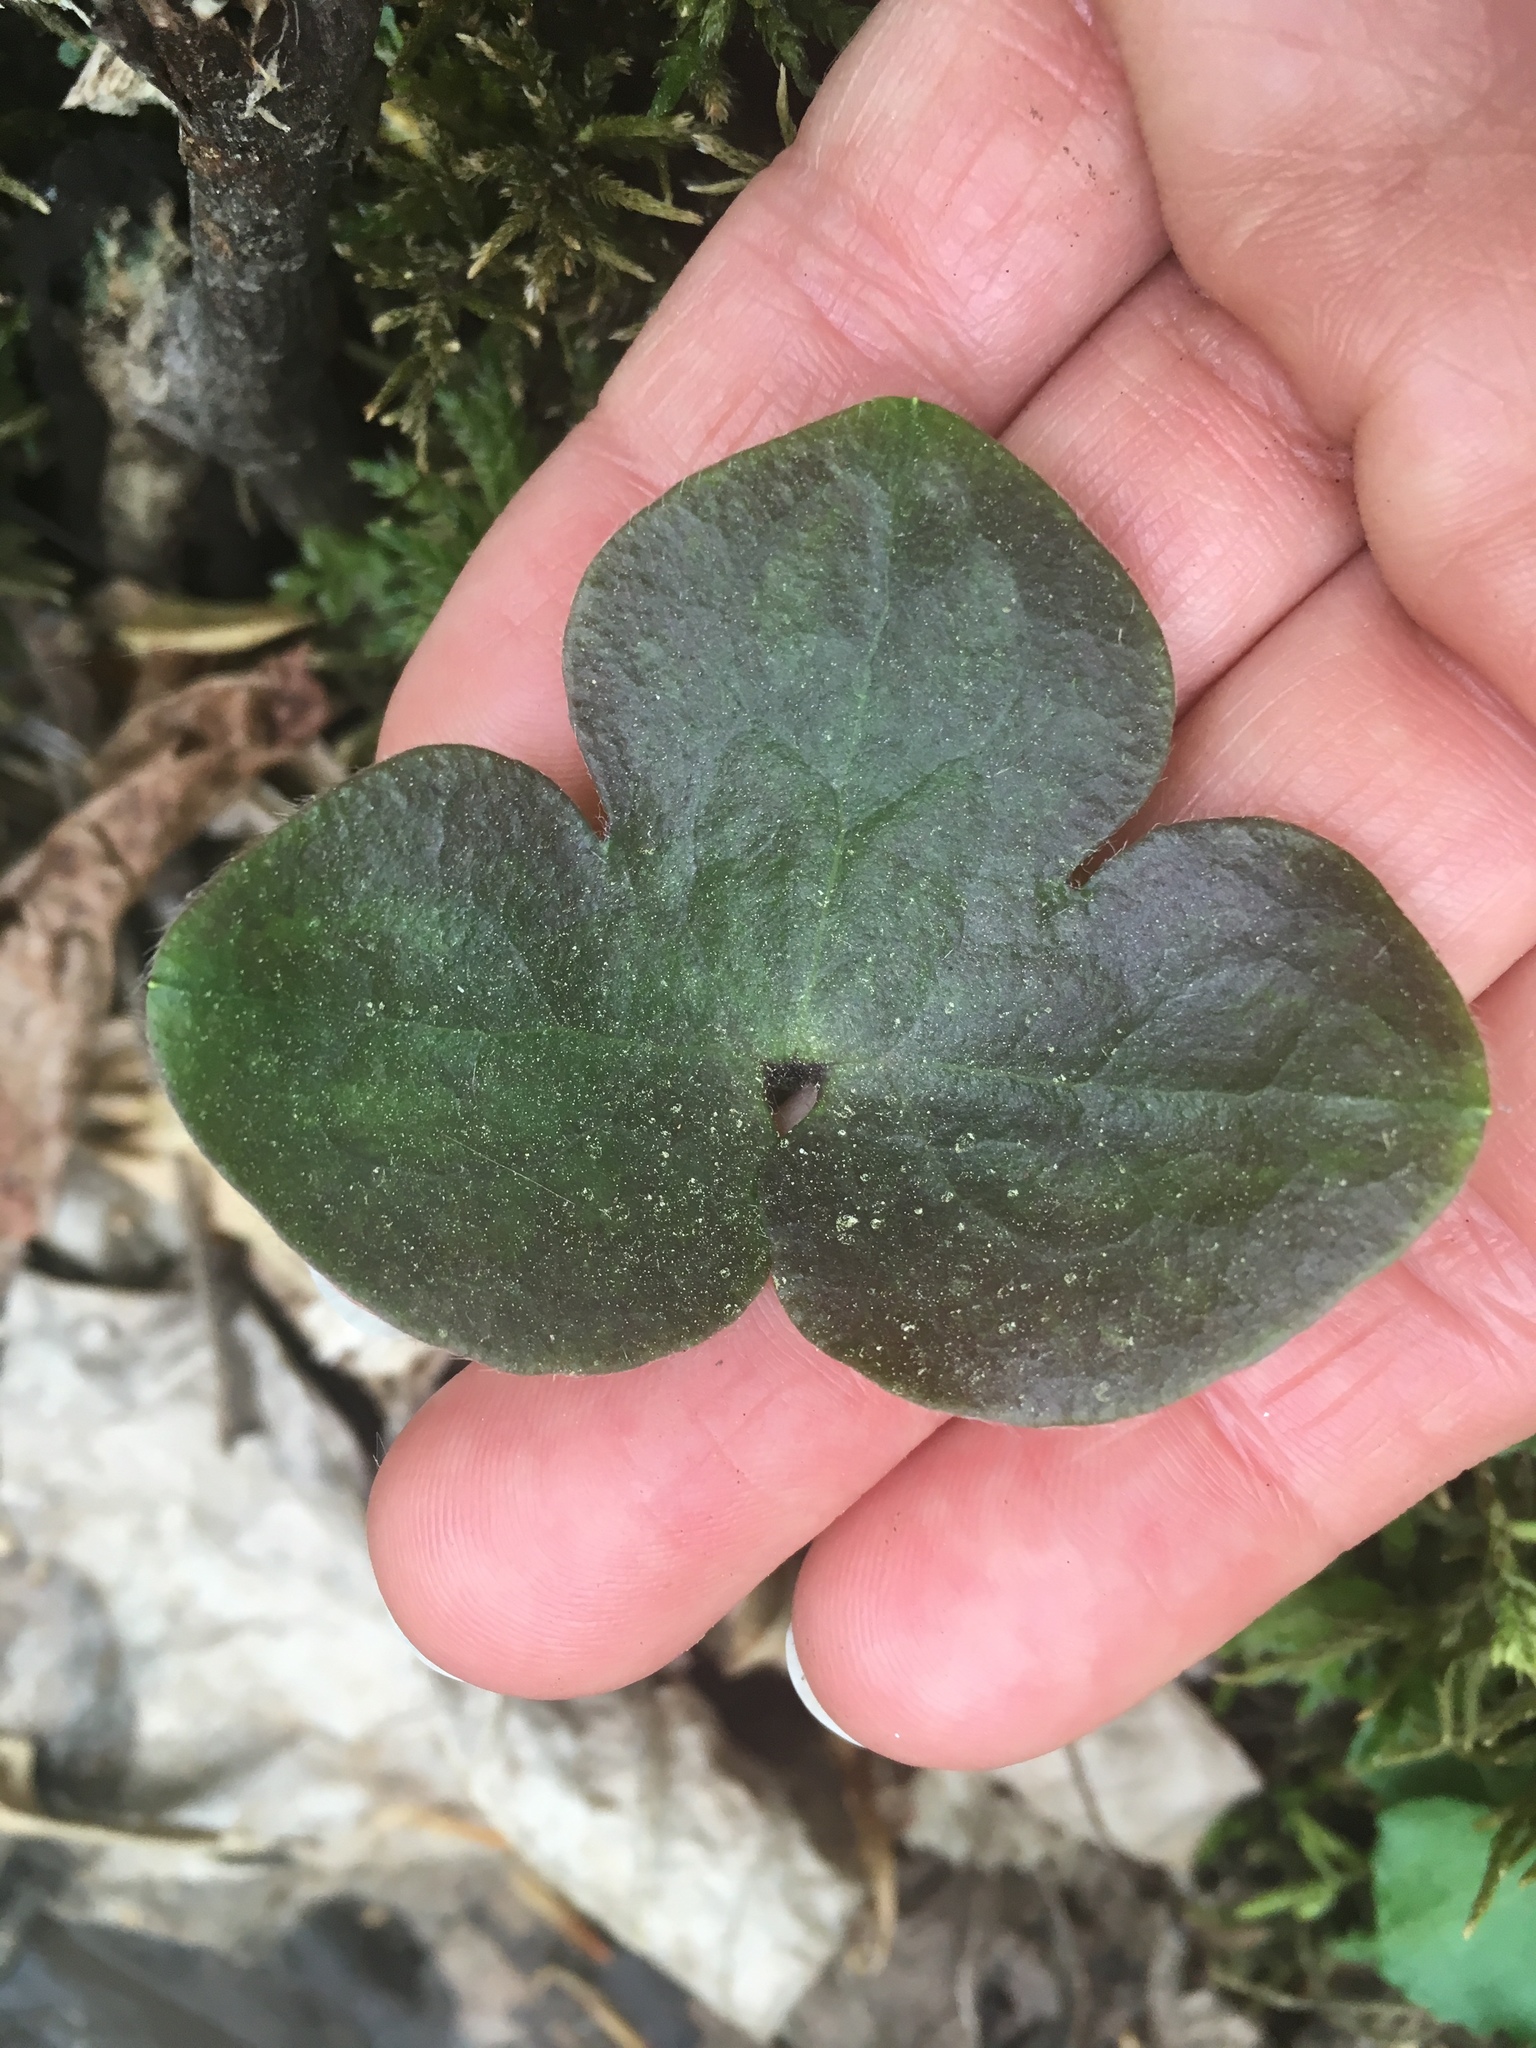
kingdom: Plantae
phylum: Tracheophyta
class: Magnoliopsida
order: Ranunculales
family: Ranunculaceae
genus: Hepatica
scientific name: Hepatica americana
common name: American hepatica
